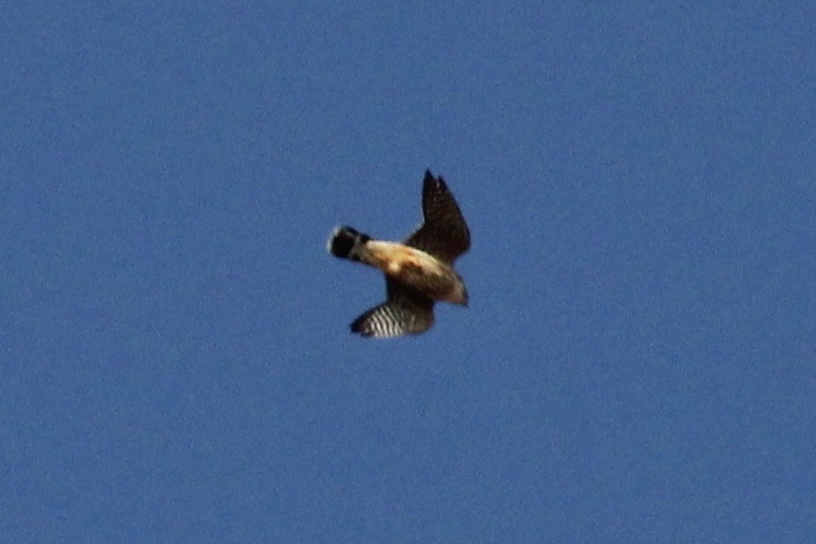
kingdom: Animalia
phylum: Chordata
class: Aves
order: Falconiformes
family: Falconidae
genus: Falco
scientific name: Falco columbarius
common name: Merlin
